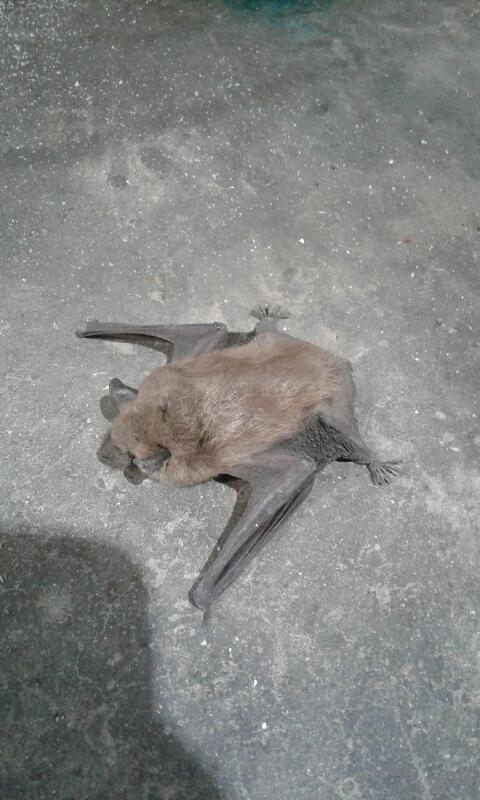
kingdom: Animalia
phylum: Chordata
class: Mammalia
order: Chiroptera
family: Vespertilionidae
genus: Eptesicus
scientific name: Eptesicus fuscus
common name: Big brown bat
